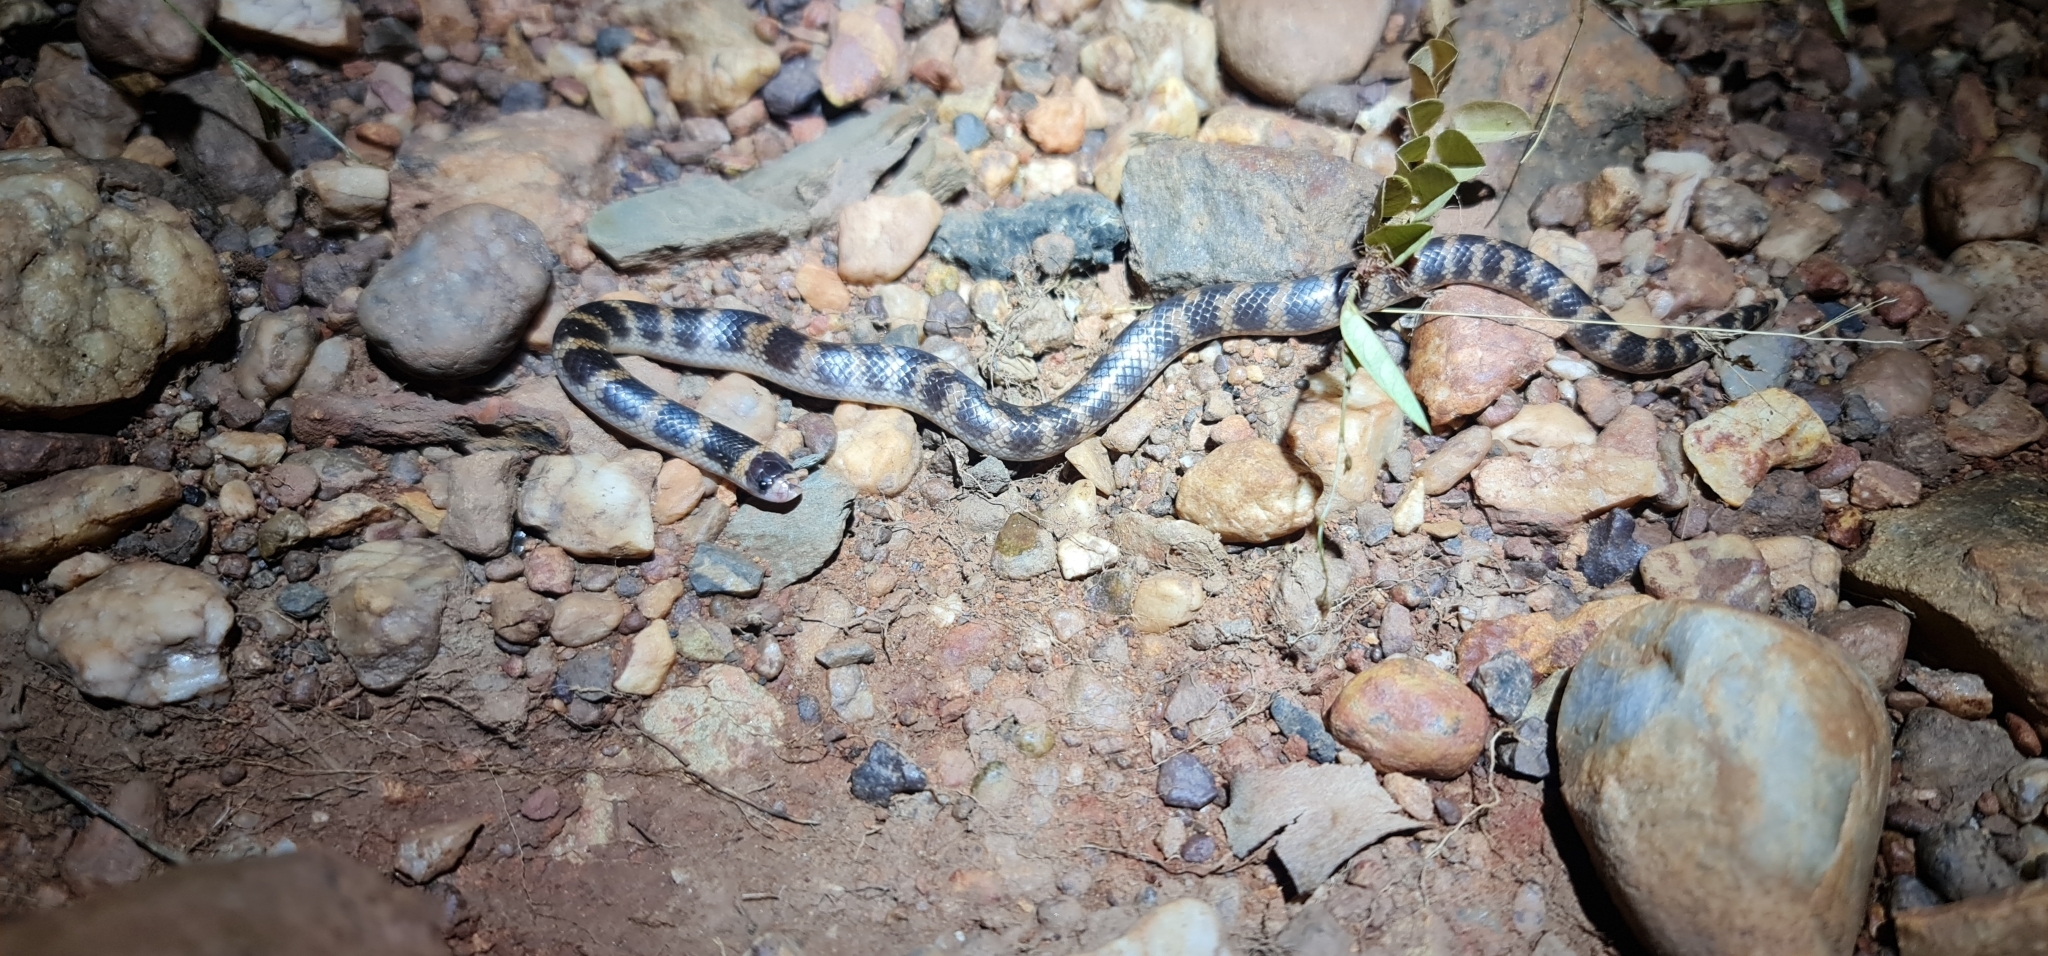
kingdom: Animalia
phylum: Chordata
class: Squamata
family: Elapidae
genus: Brachyurophis
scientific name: Brachyurophis roperi
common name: Northern shovel-nosed snake
